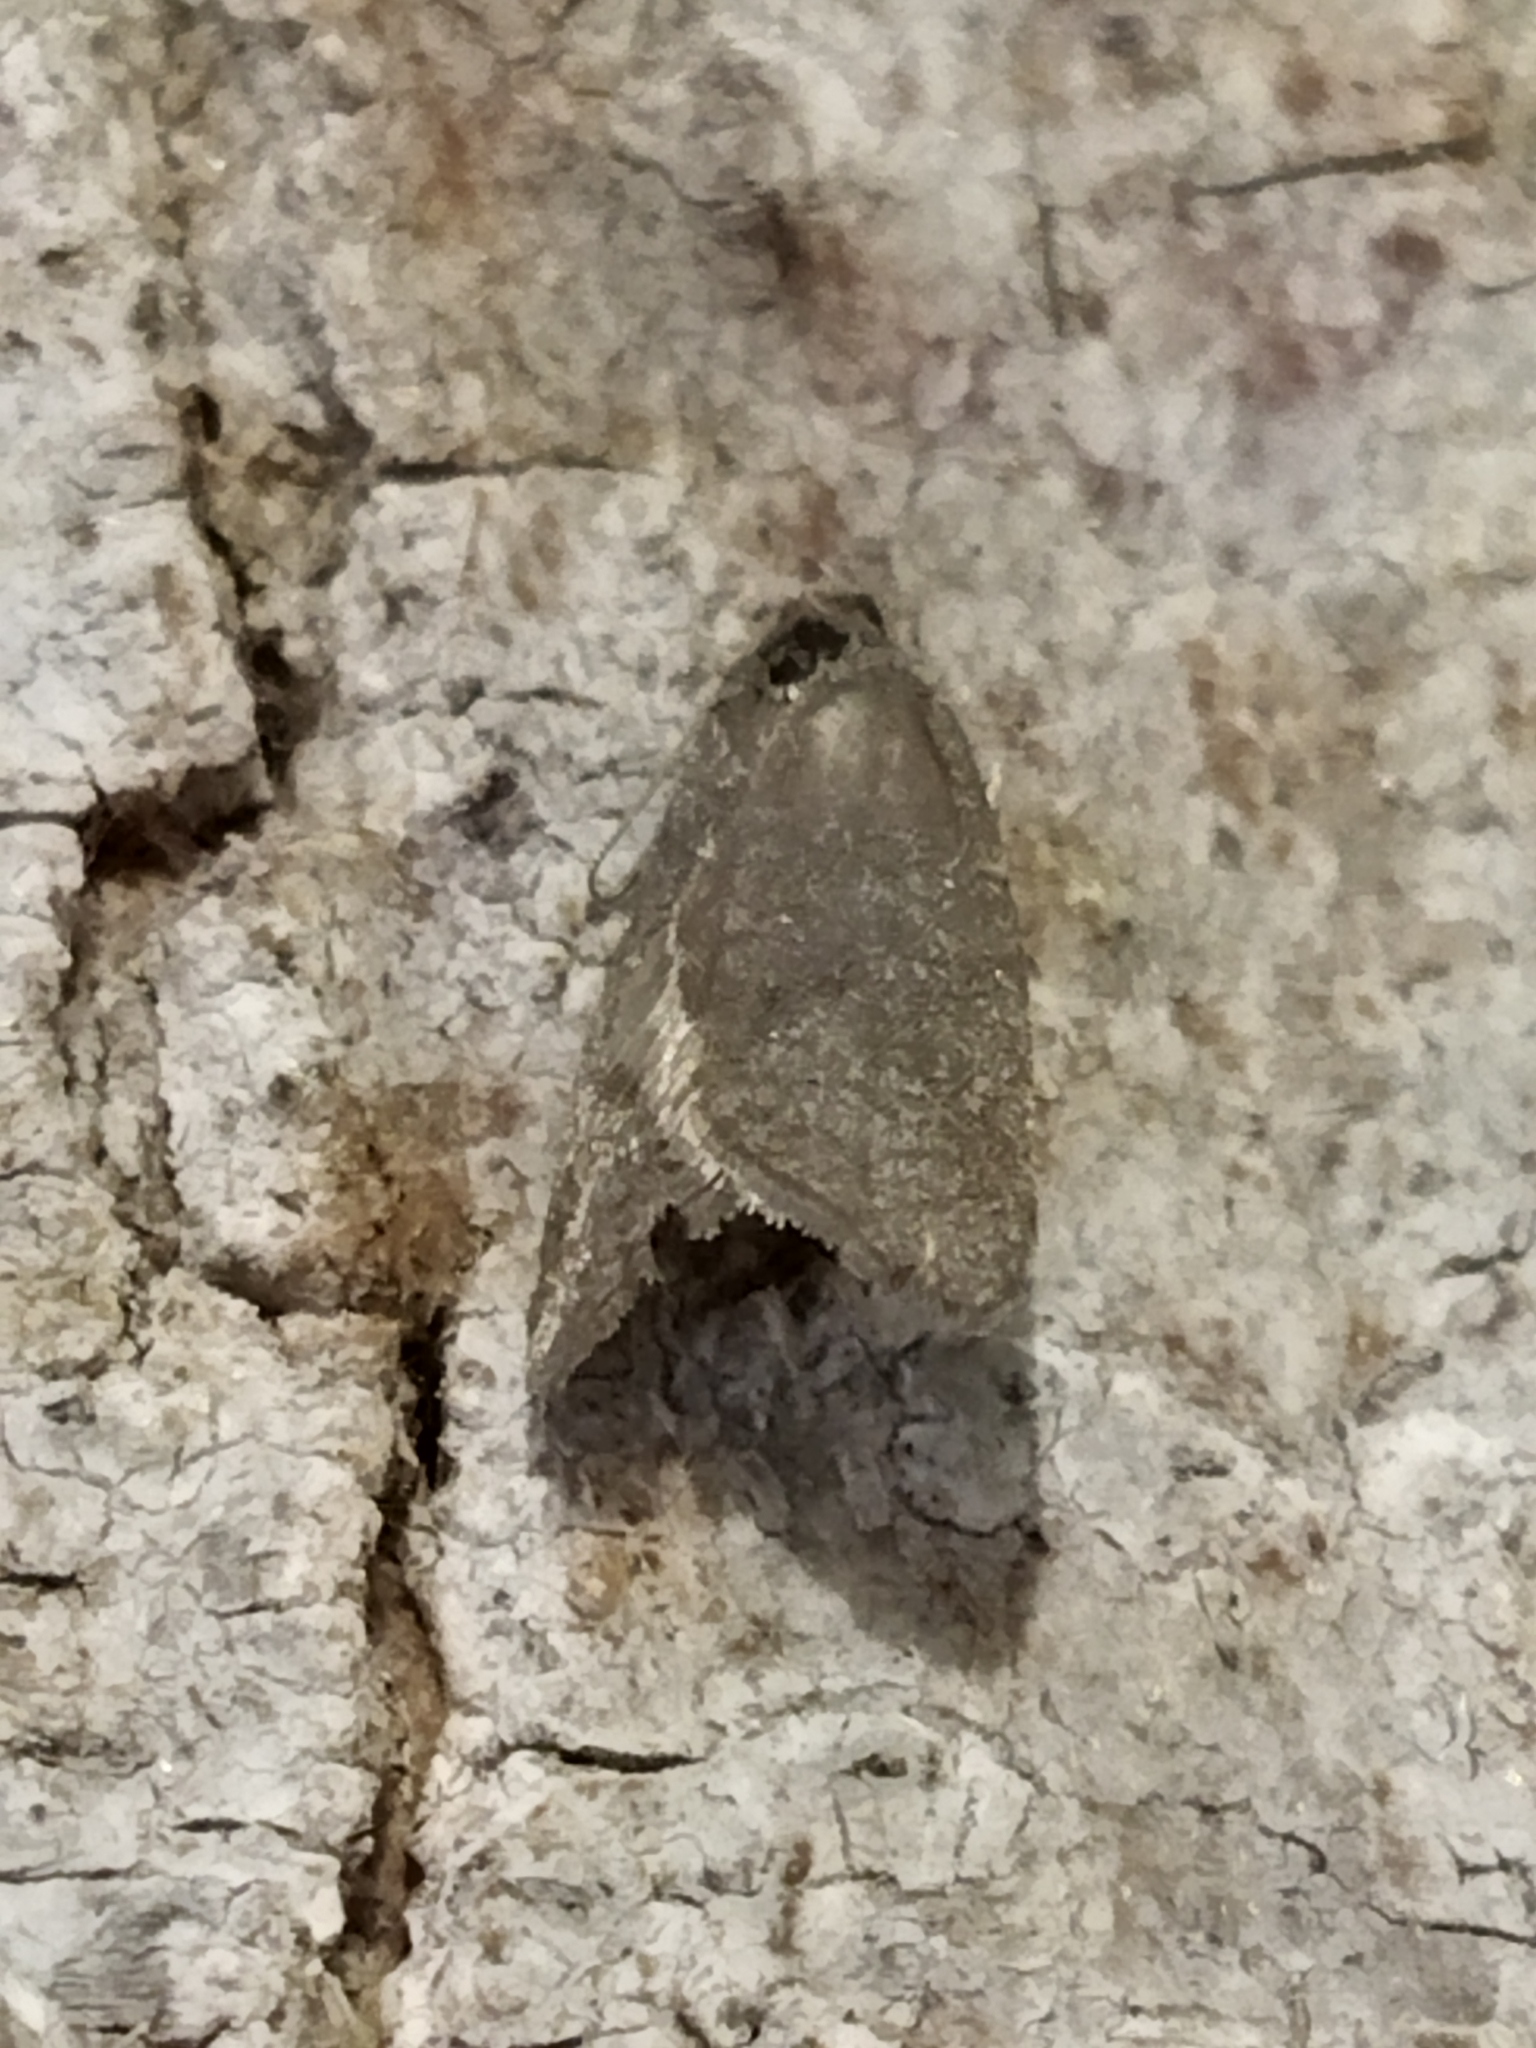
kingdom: Animalia
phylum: Arthropoda
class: Insecta
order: Lepidoptera
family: Tortricidae
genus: Clepsis
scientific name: Clepsis senecionana
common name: Obscure tortrix
